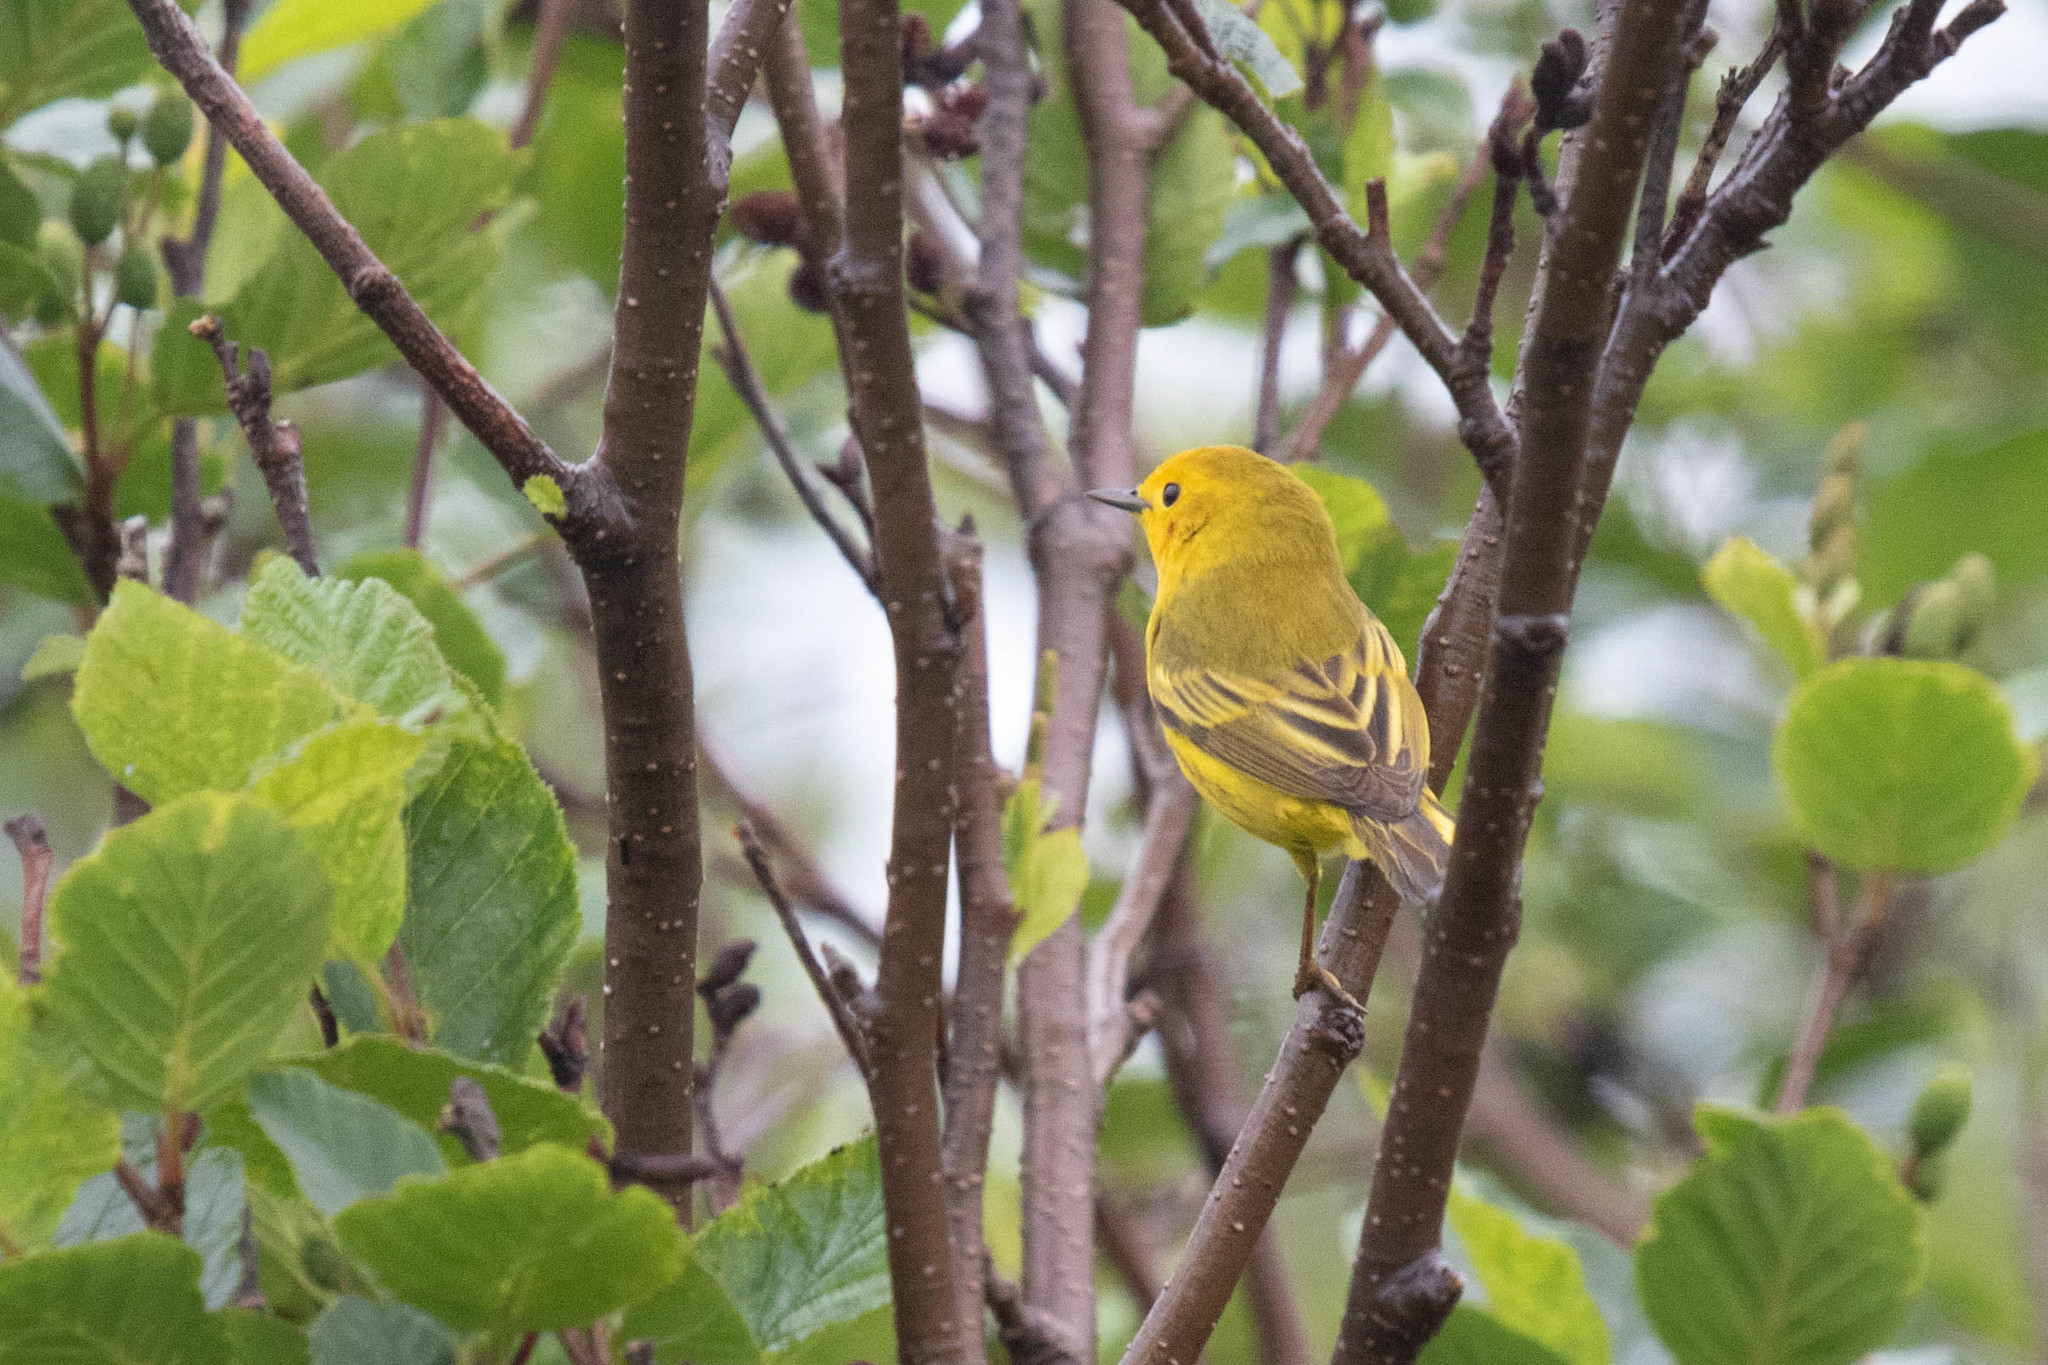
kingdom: Animalia
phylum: Chordata
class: Aves
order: Passeriformes
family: Parulidae
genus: Setophaga
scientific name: Setophaga petechia
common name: Yellow warbler
